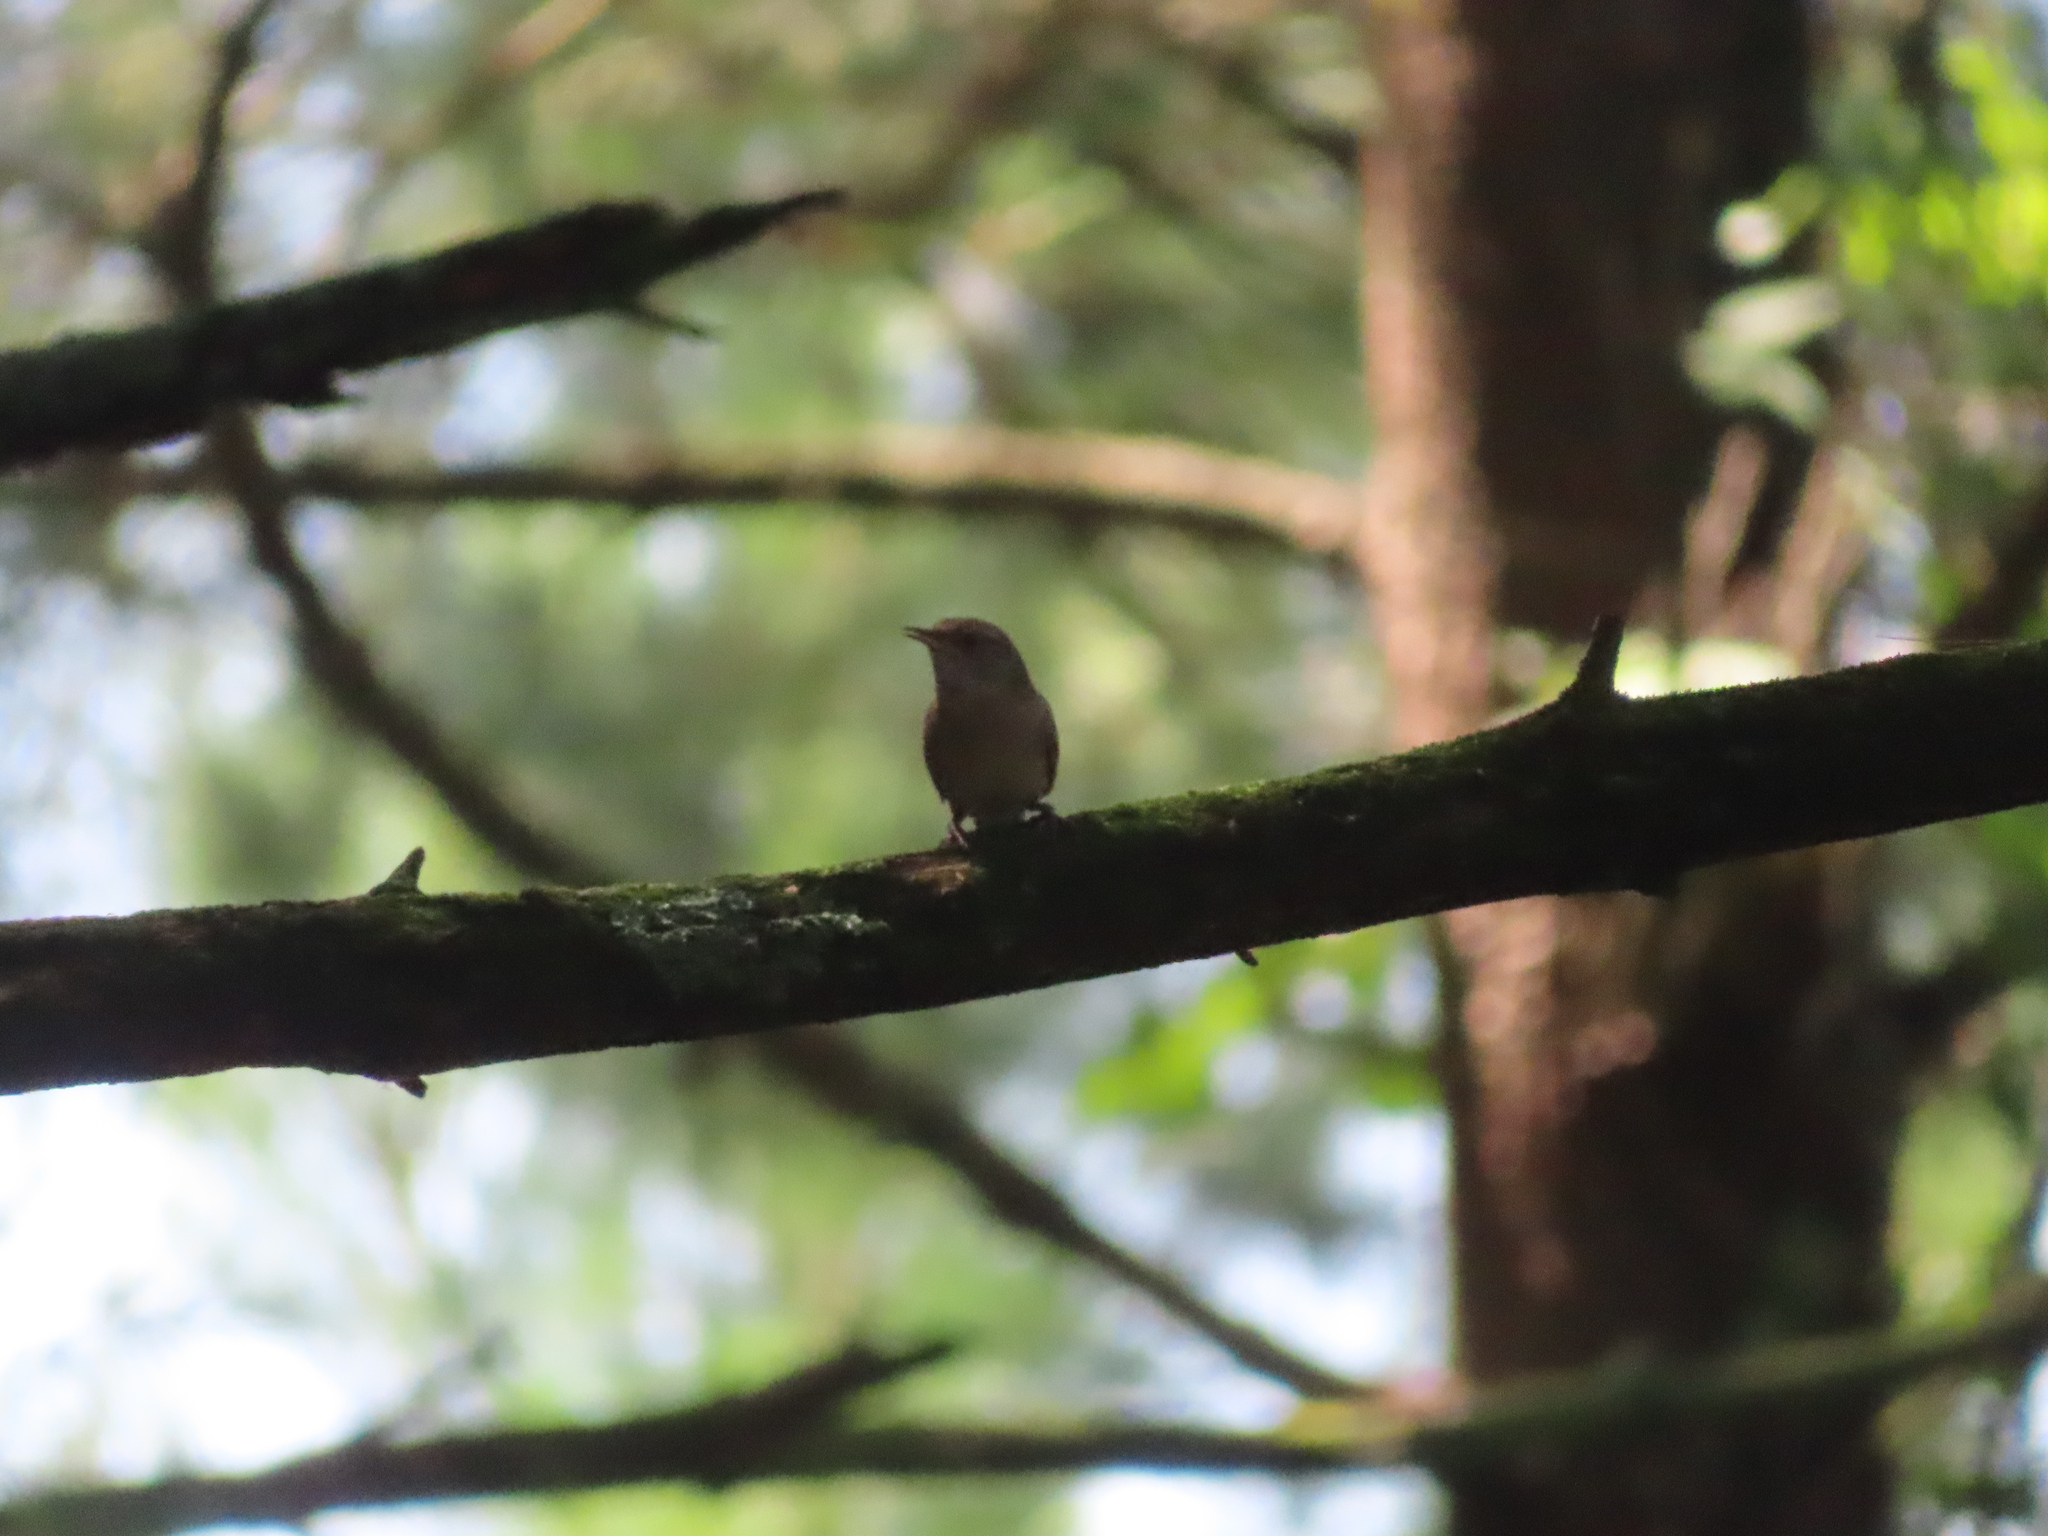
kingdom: Animalia
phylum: Chordata
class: Aves
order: Passeriformes
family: Troglodytidae
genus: Troglodytes
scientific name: Troglodytes aedon
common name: House wren
